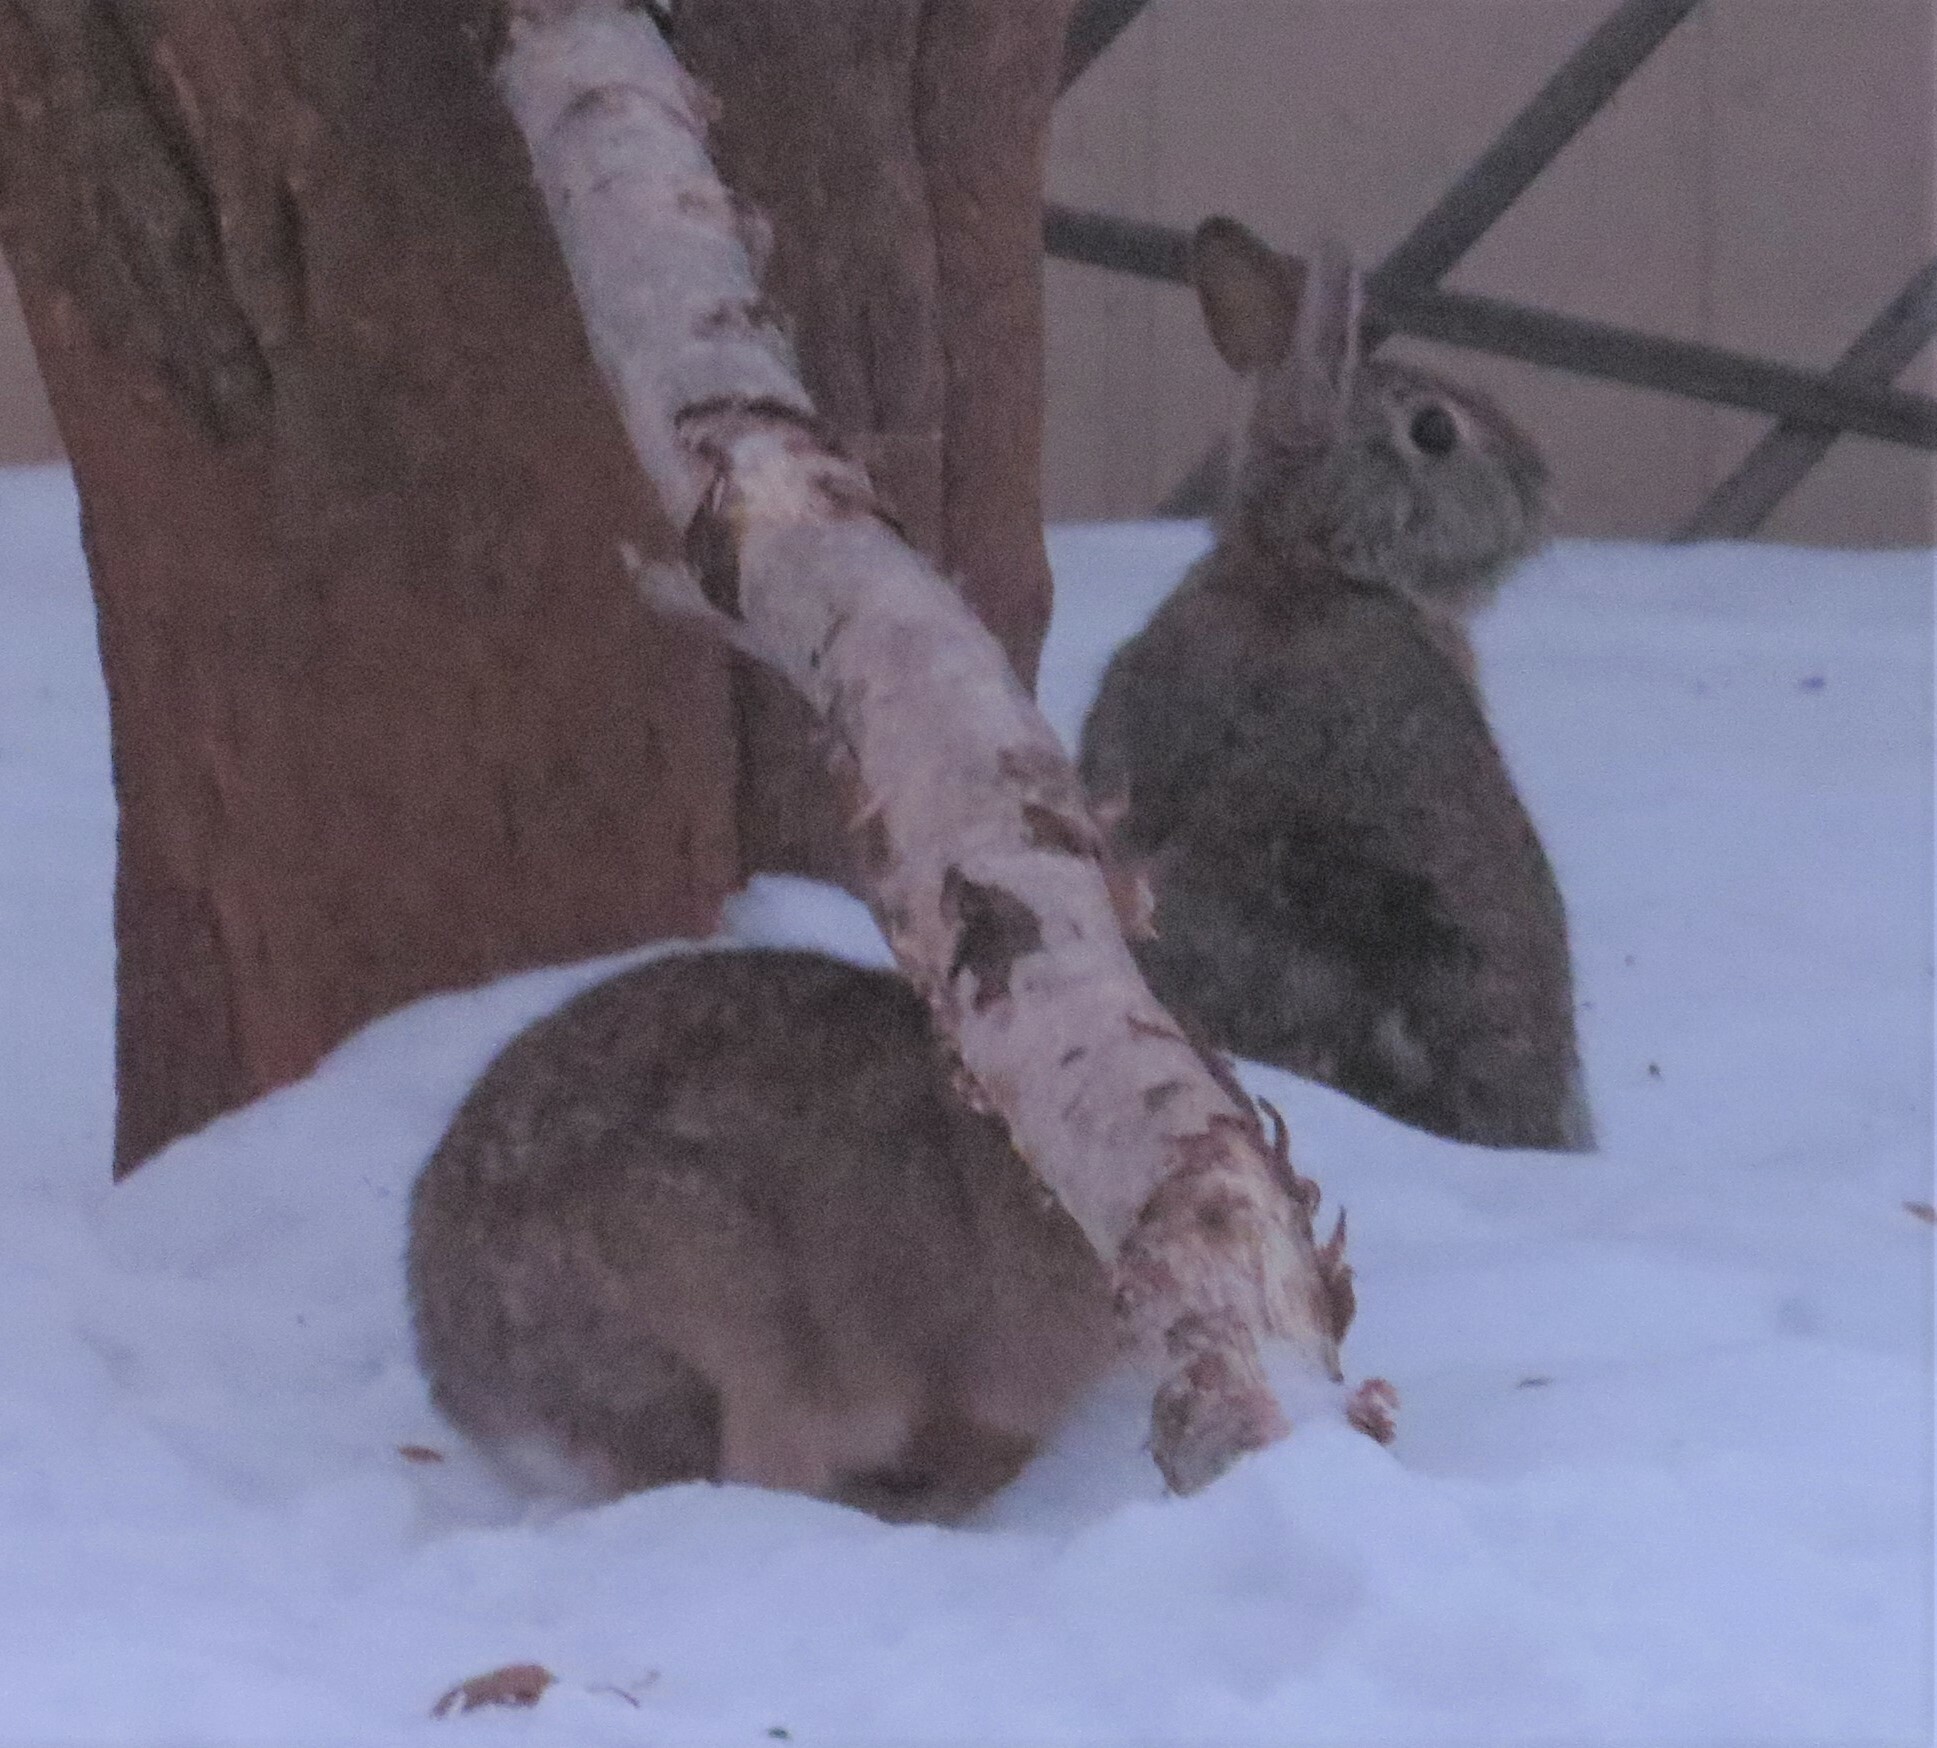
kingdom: Animalia
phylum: Chordata
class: Mammalia
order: Lagomorpha
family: Leporidae
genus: Sylvilagus
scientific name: Sylvilagus floridanus
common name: Eastern cottontail
